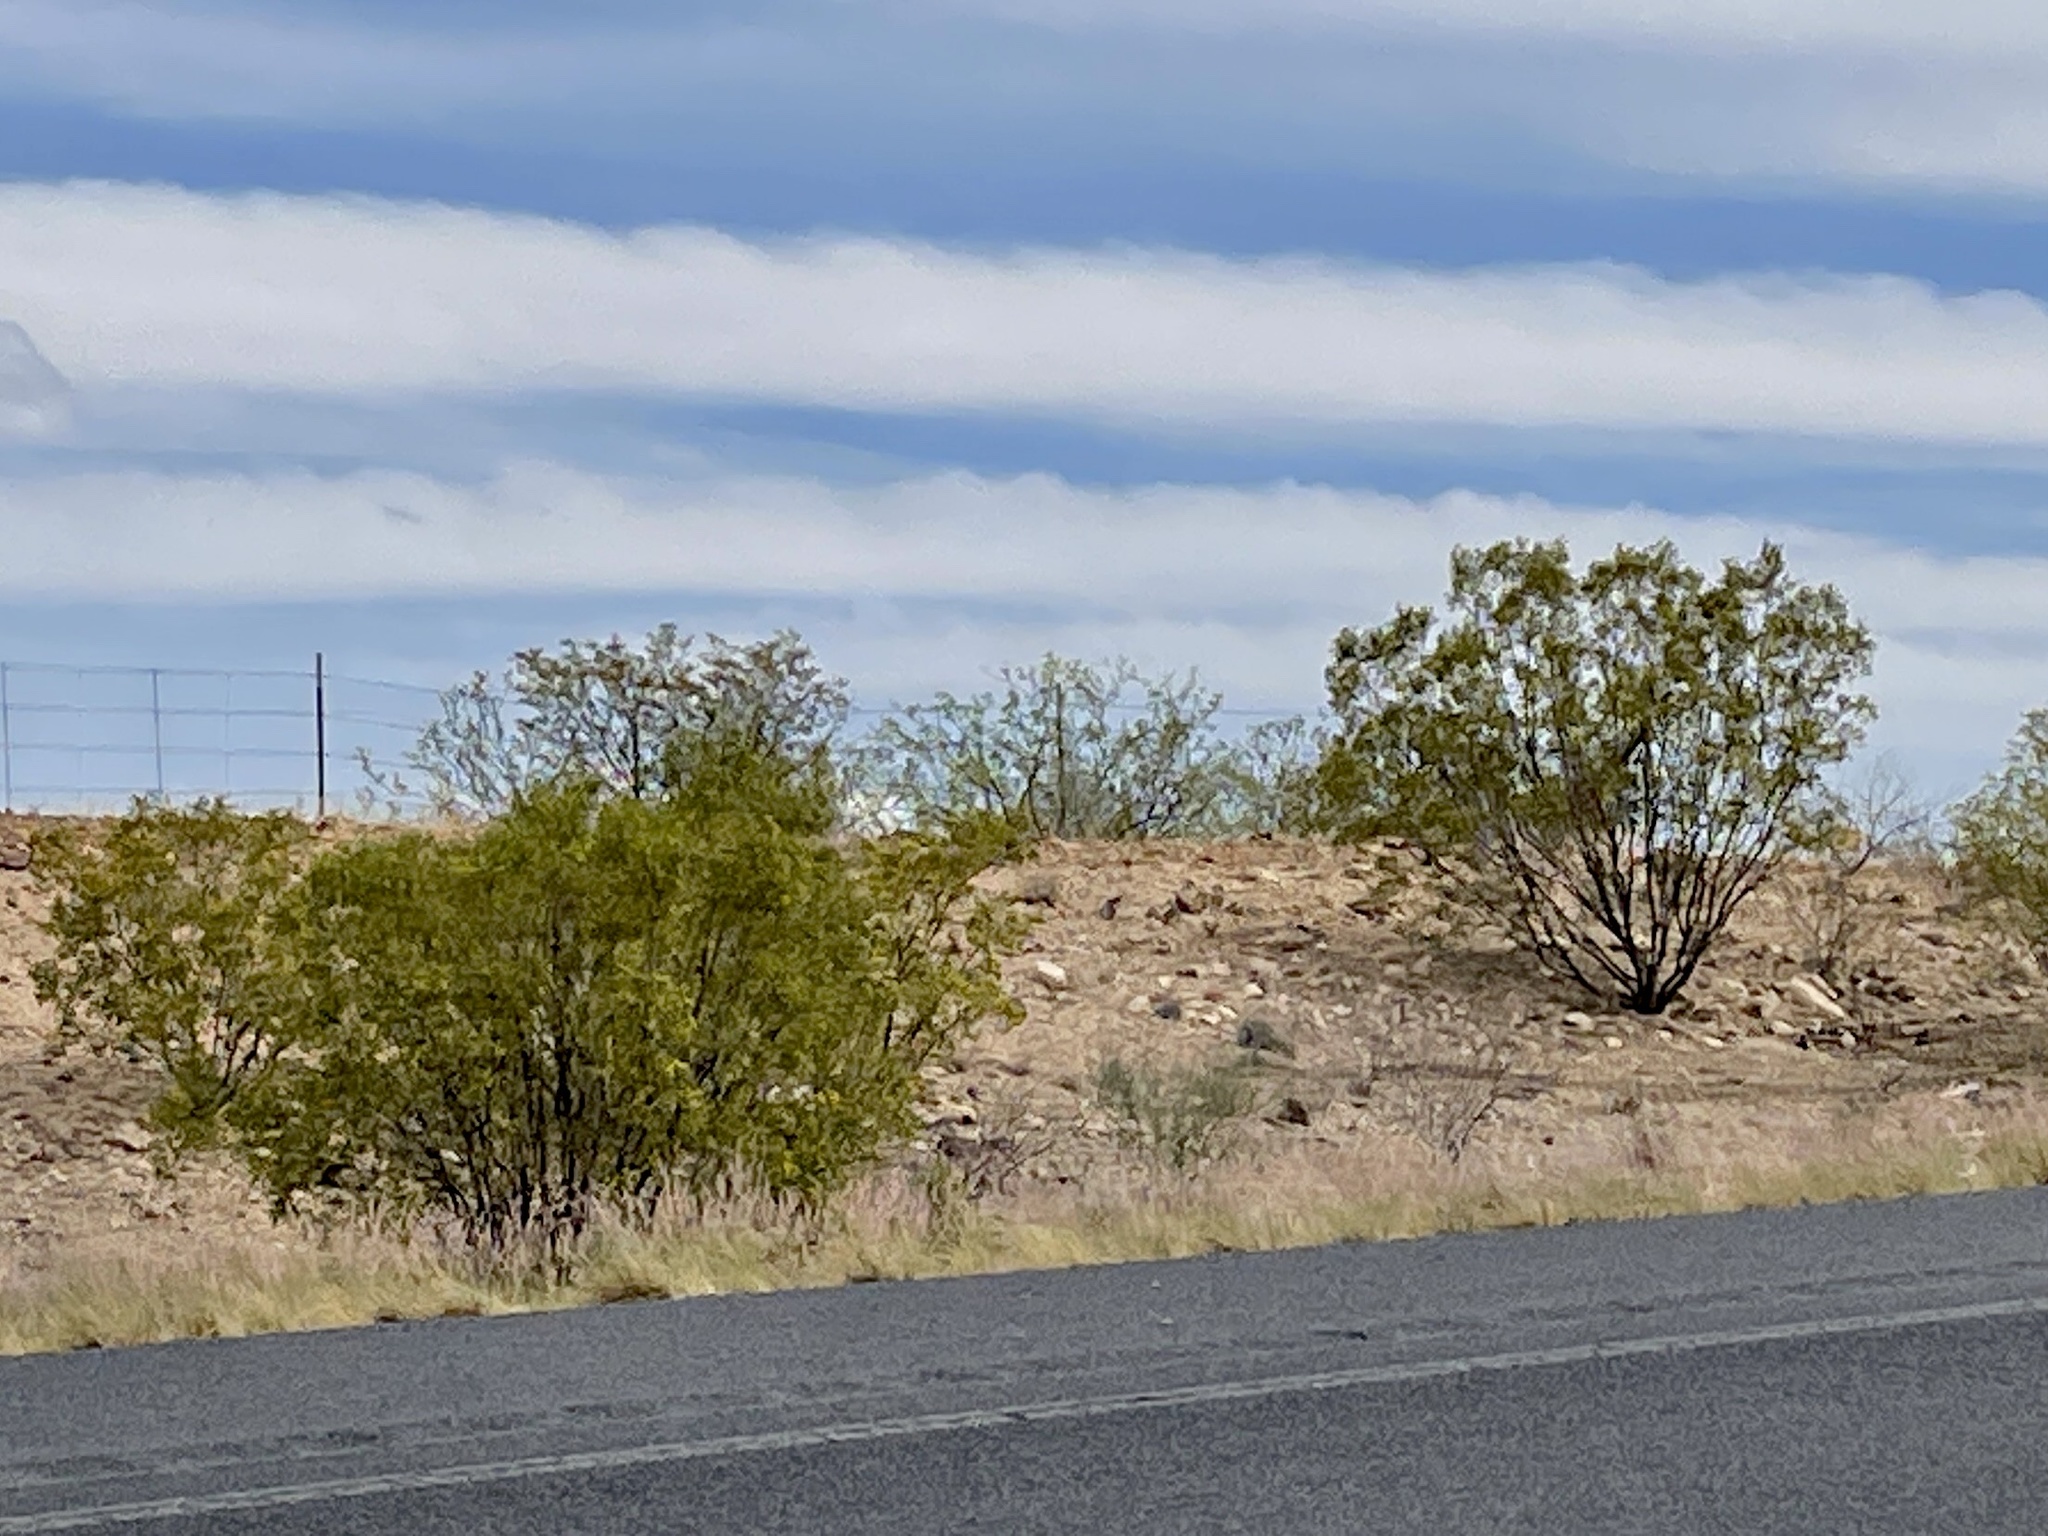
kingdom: Plantae
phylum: Tracheophyta
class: Magnoliopsida
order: Zygophyllales
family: Zygophyllaceae
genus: Larrea
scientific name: Larrea tridentata
